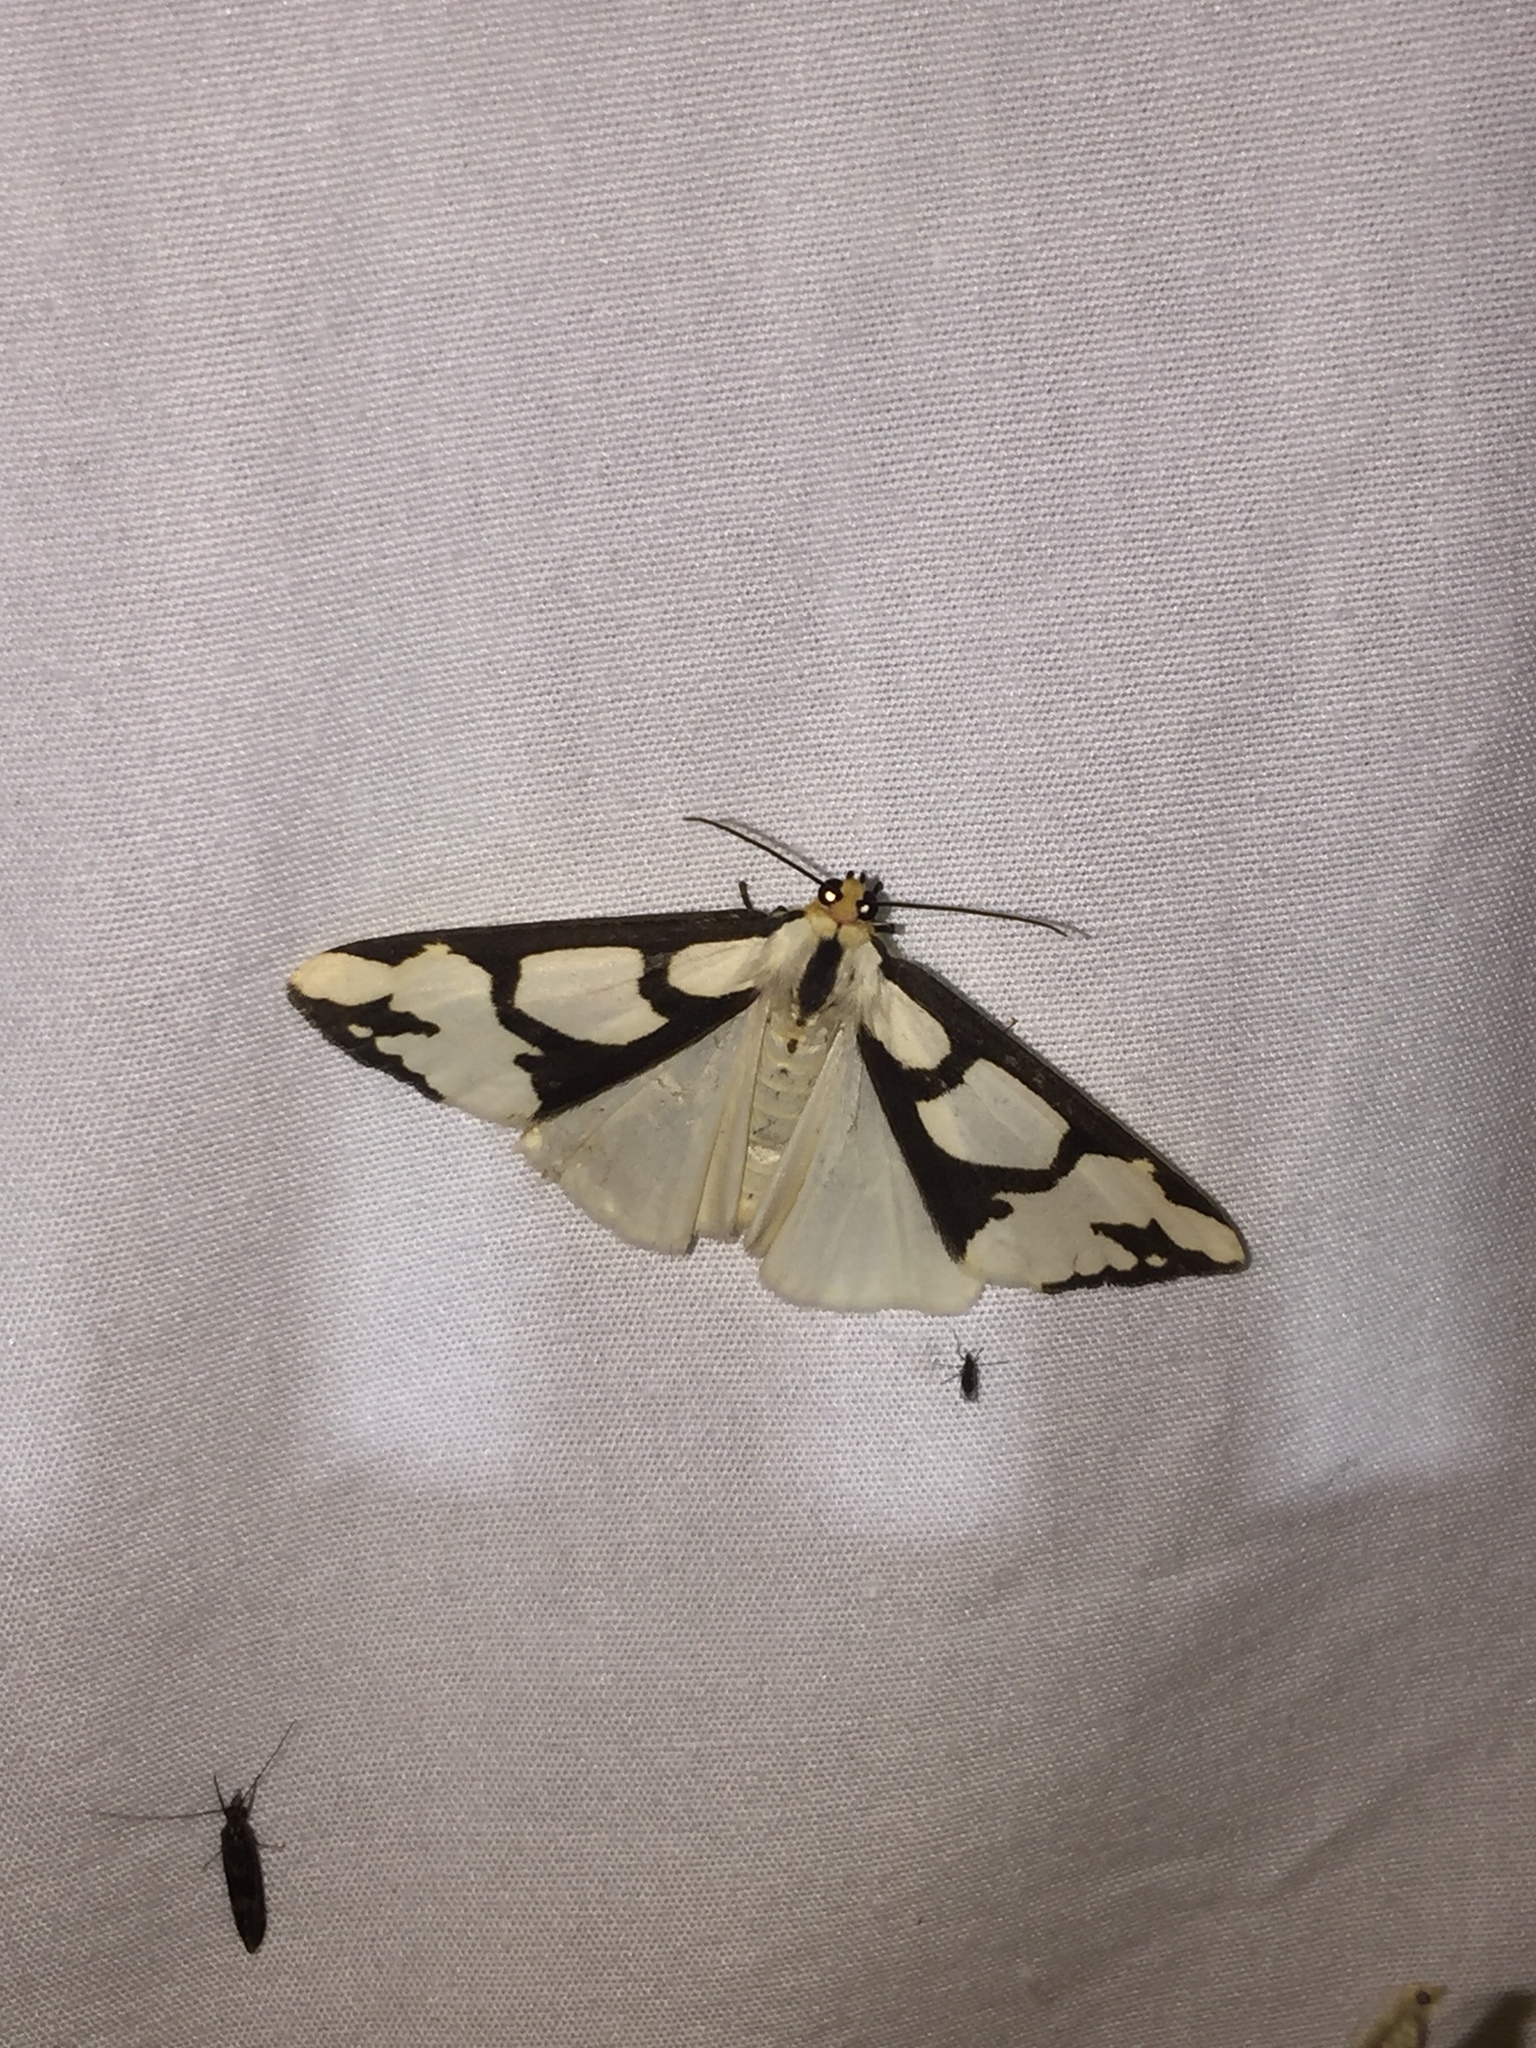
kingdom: Animalia
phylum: Arthropoda
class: Insecta
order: Lepidoptera
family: Erebidae
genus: Haploa
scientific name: Haploa lecontei
